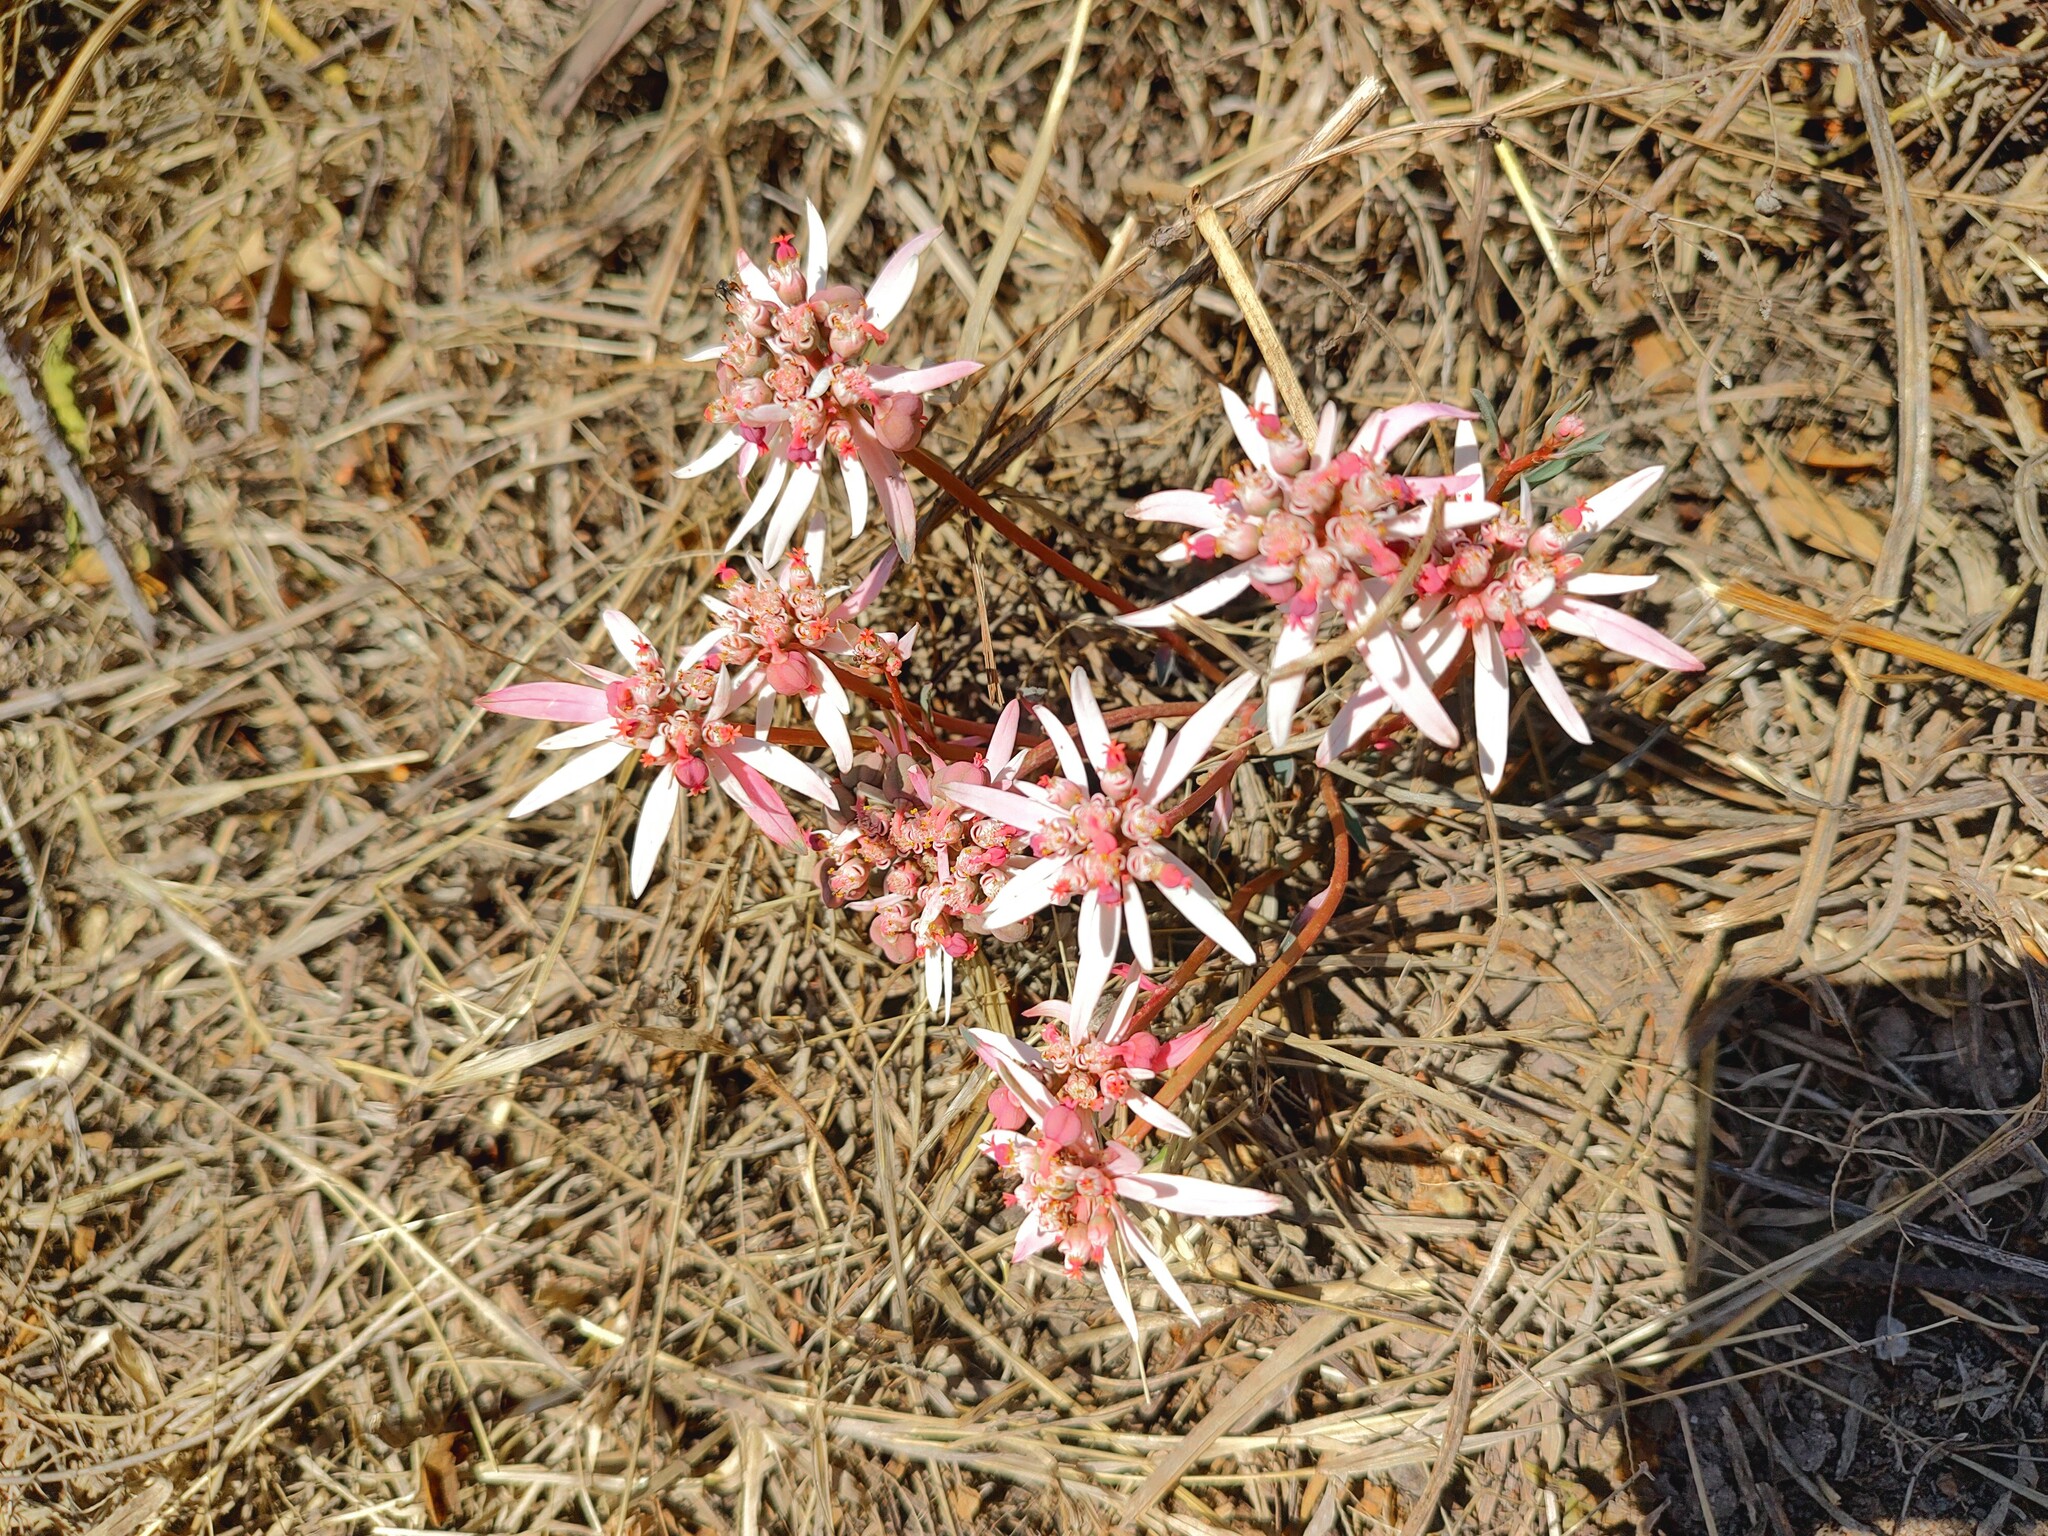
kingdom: Plantae
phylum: Tracheophyta
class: Magnoliopsida
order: Malpighiales
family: Euphorbiaceae
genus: Euphorbia
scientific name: Euphorbia radians
